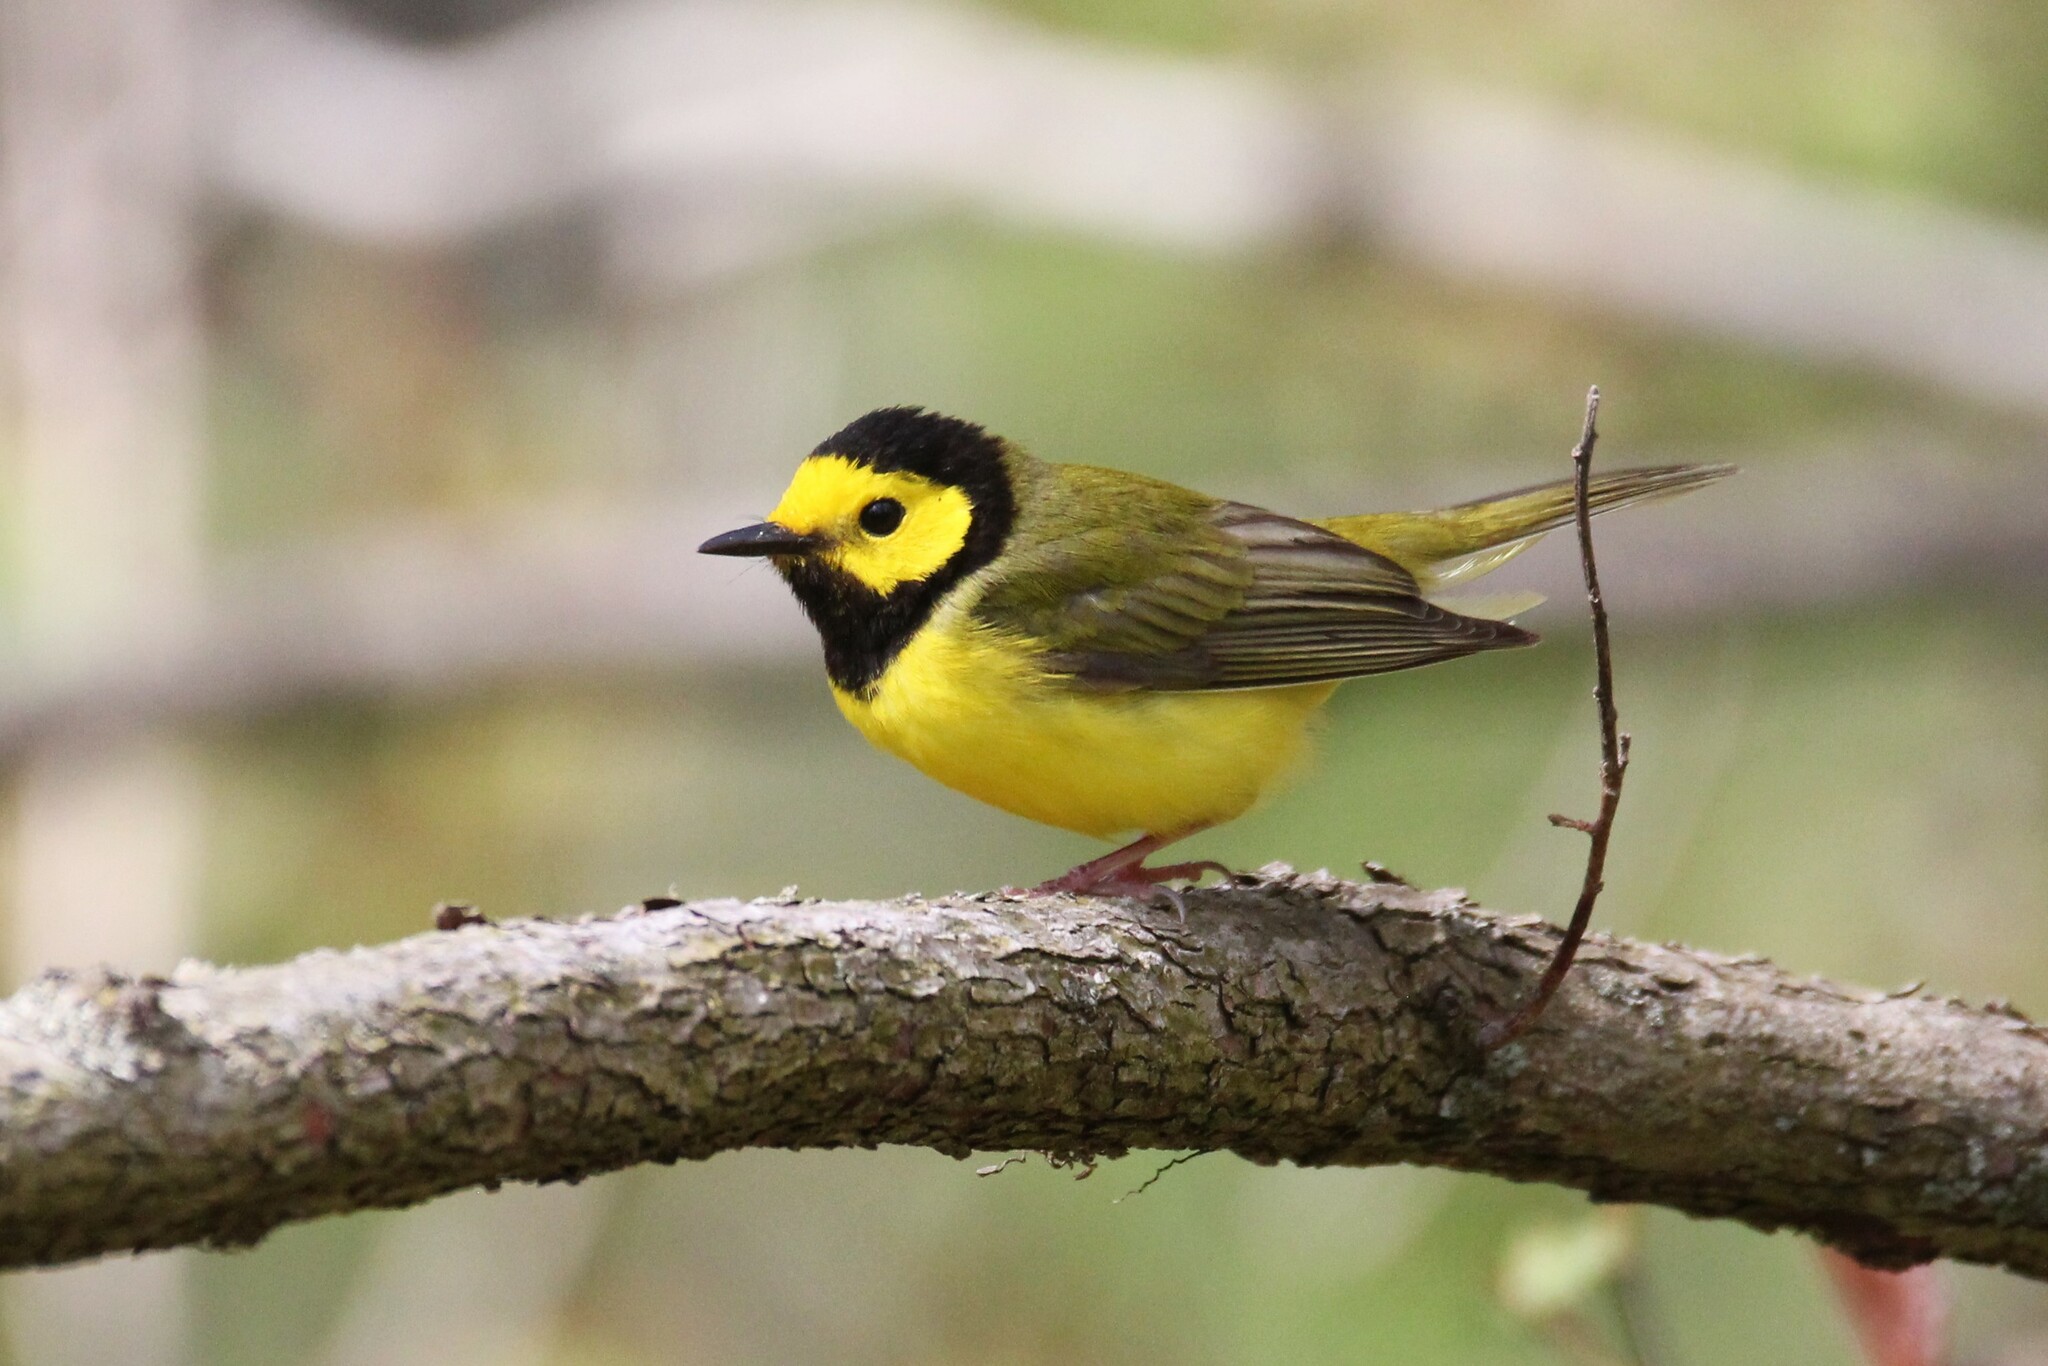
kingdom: Animalia
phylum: Chordata
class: Aves
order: Passeriformes
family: Parulidae
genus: Setophaga
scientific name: Setophaga citrina
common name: Hooded warbler
